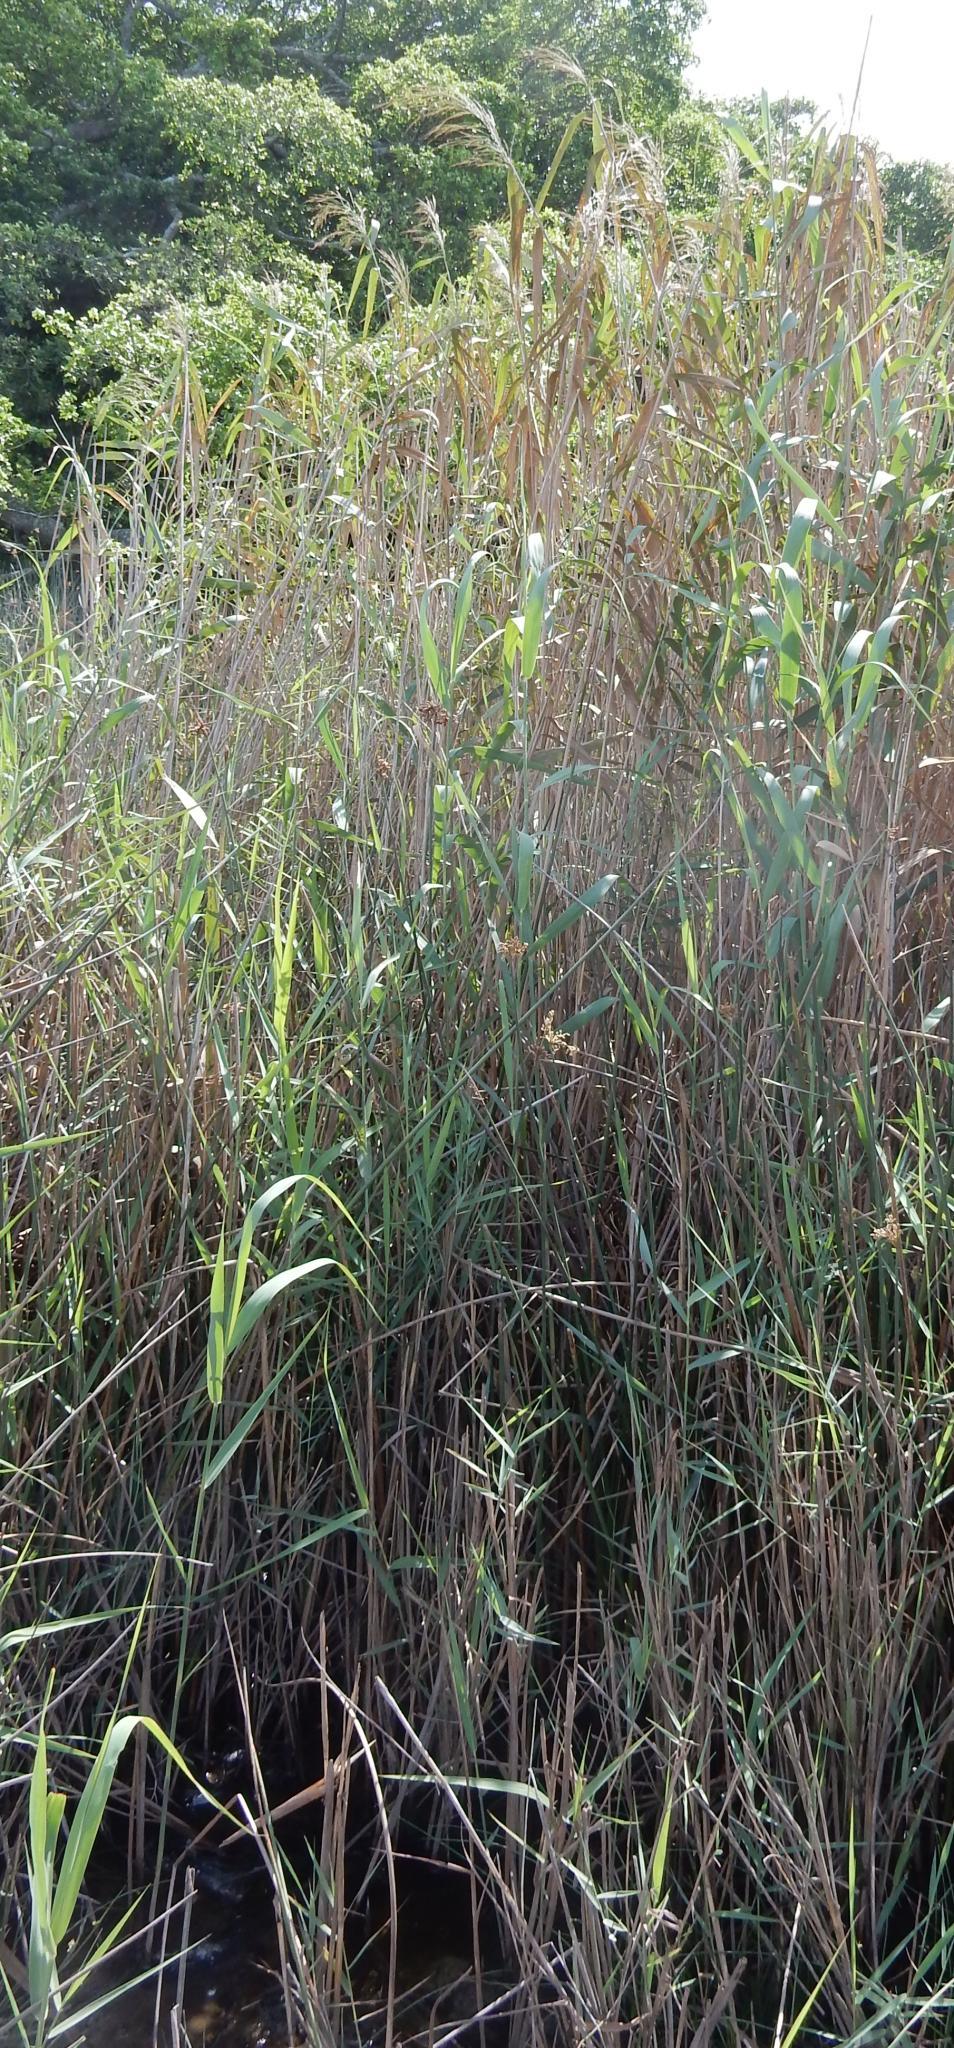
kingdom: Plantae
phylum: Tracheophyta
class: Liliopsida
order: Poales
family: Poaceae
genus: Phragmites
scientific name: Phragmites australis
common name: Common reed
